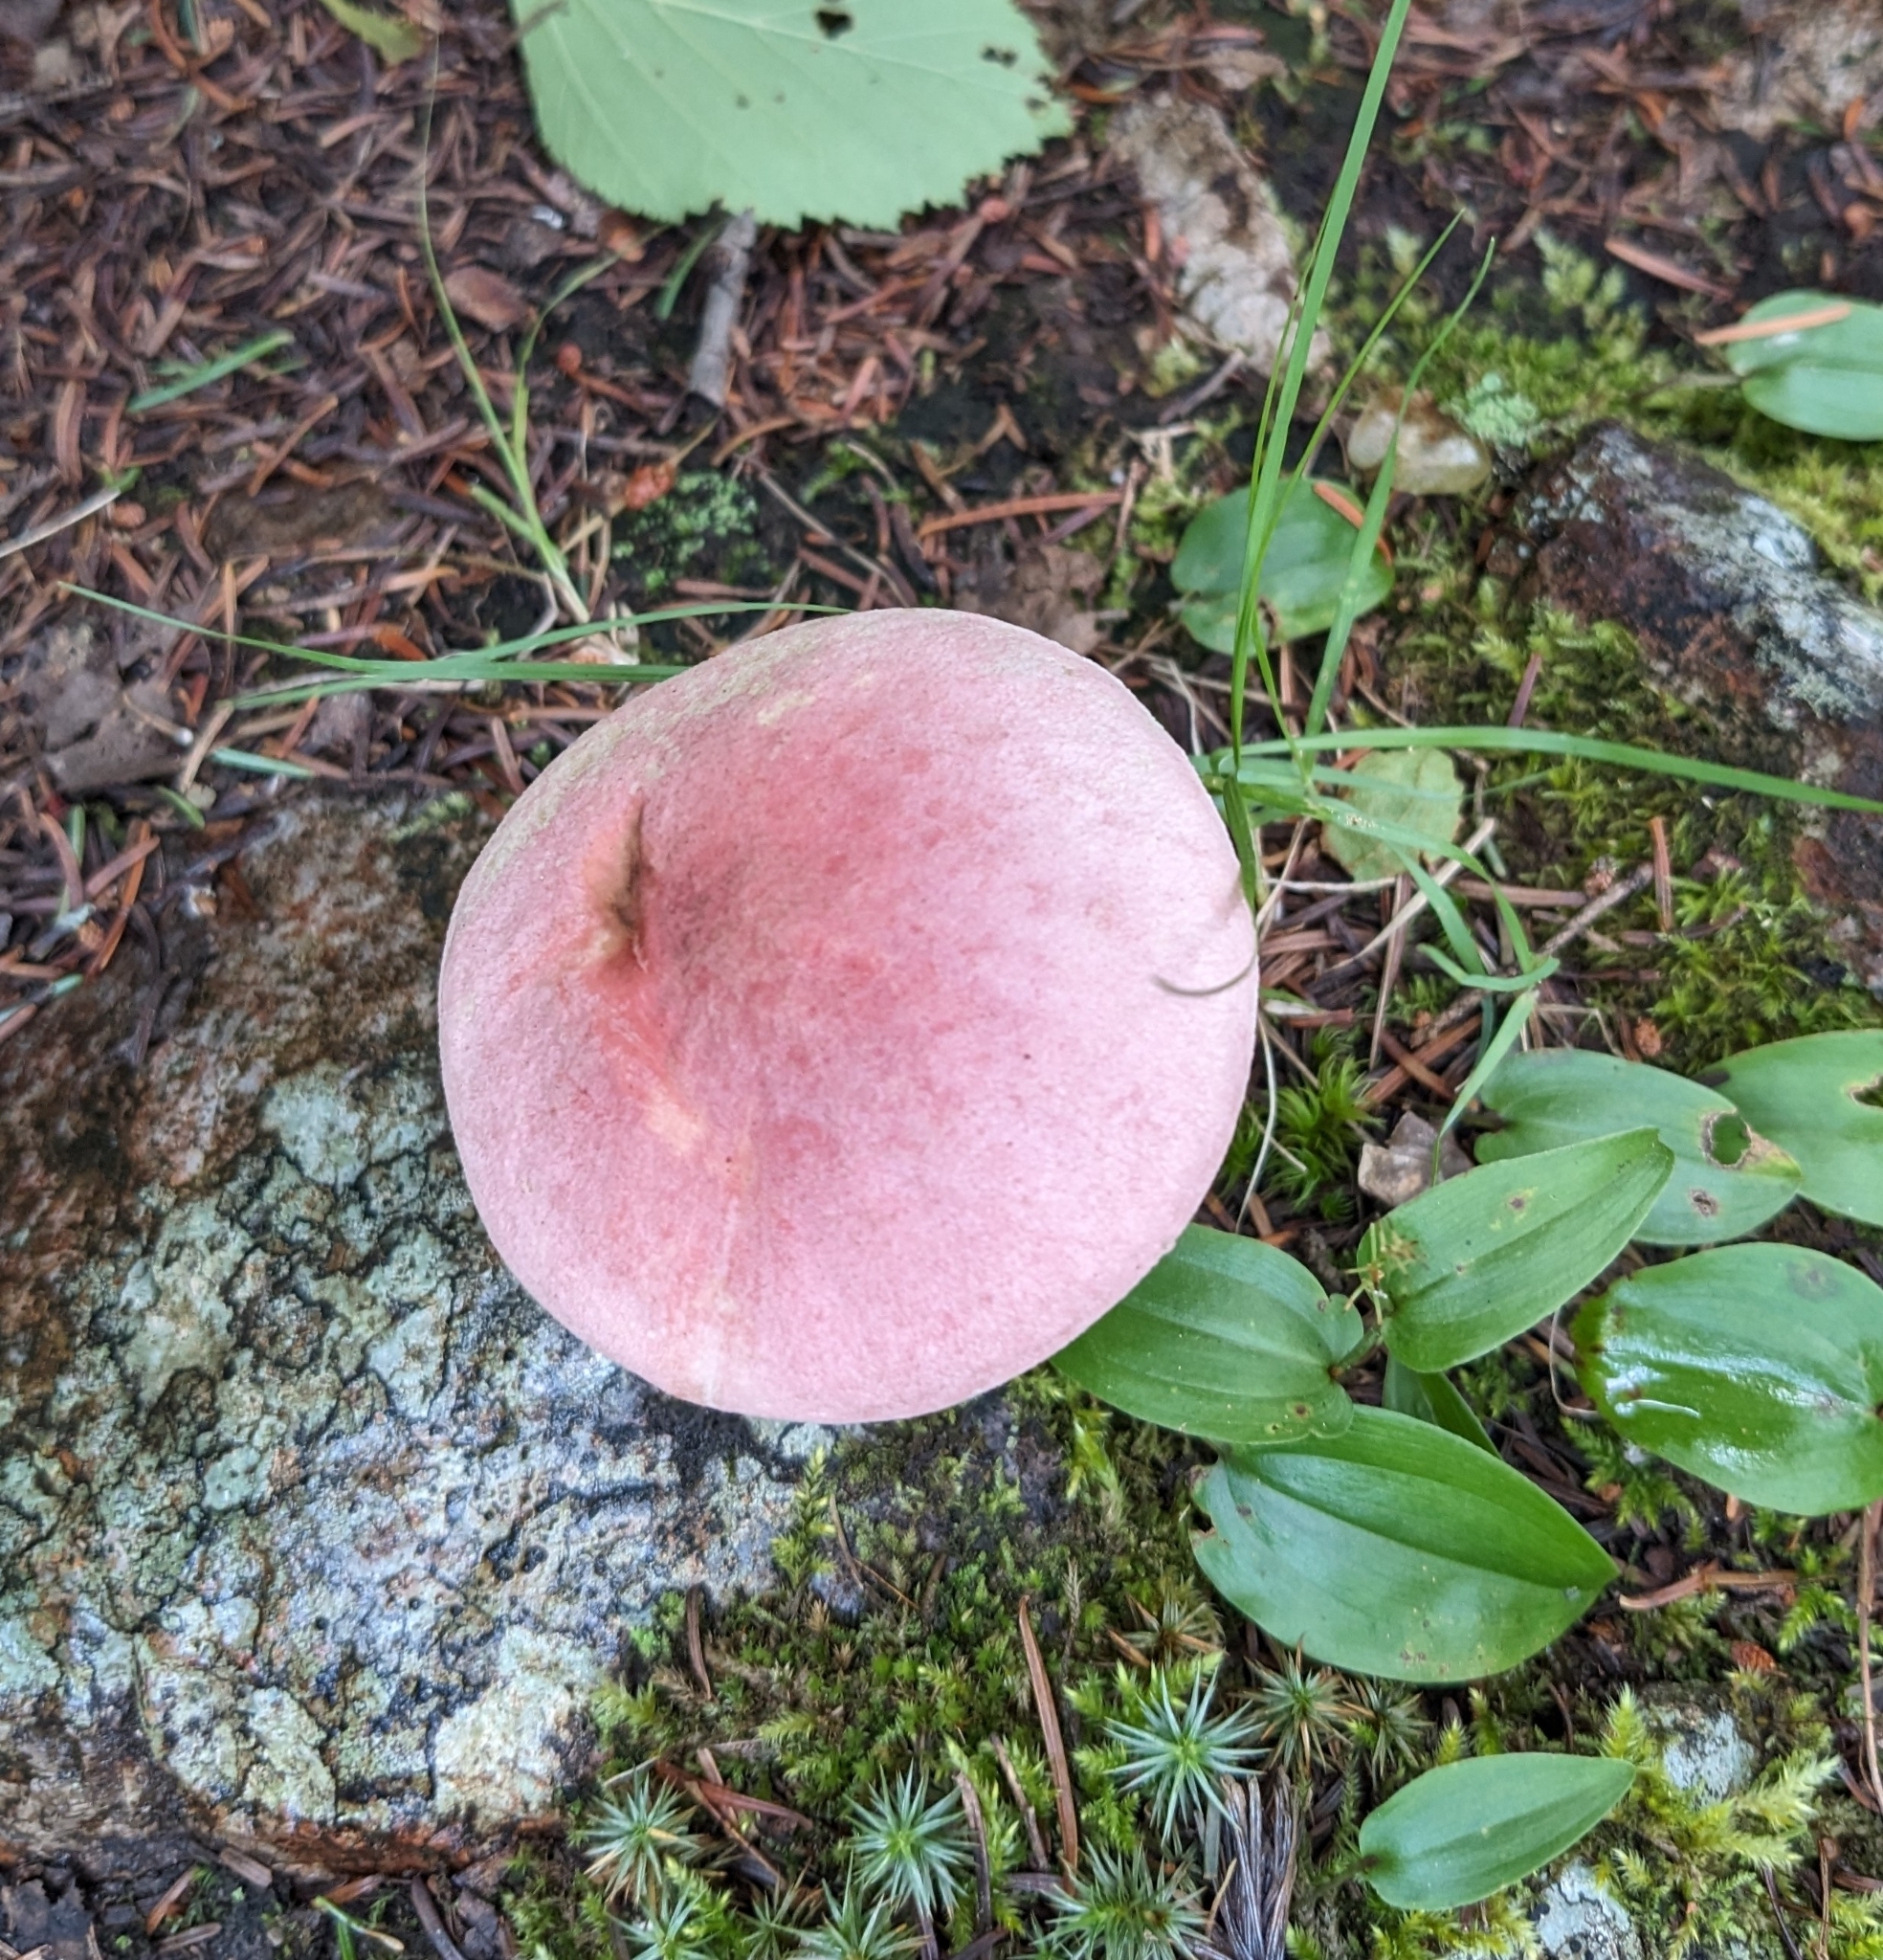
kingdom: Fungi
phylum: Basidiomycota
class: Agaricomycetes
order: Boletales
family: Boletaceae
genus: Harrya
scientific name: Harrya chromipes
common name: Chrome-footed bolete
